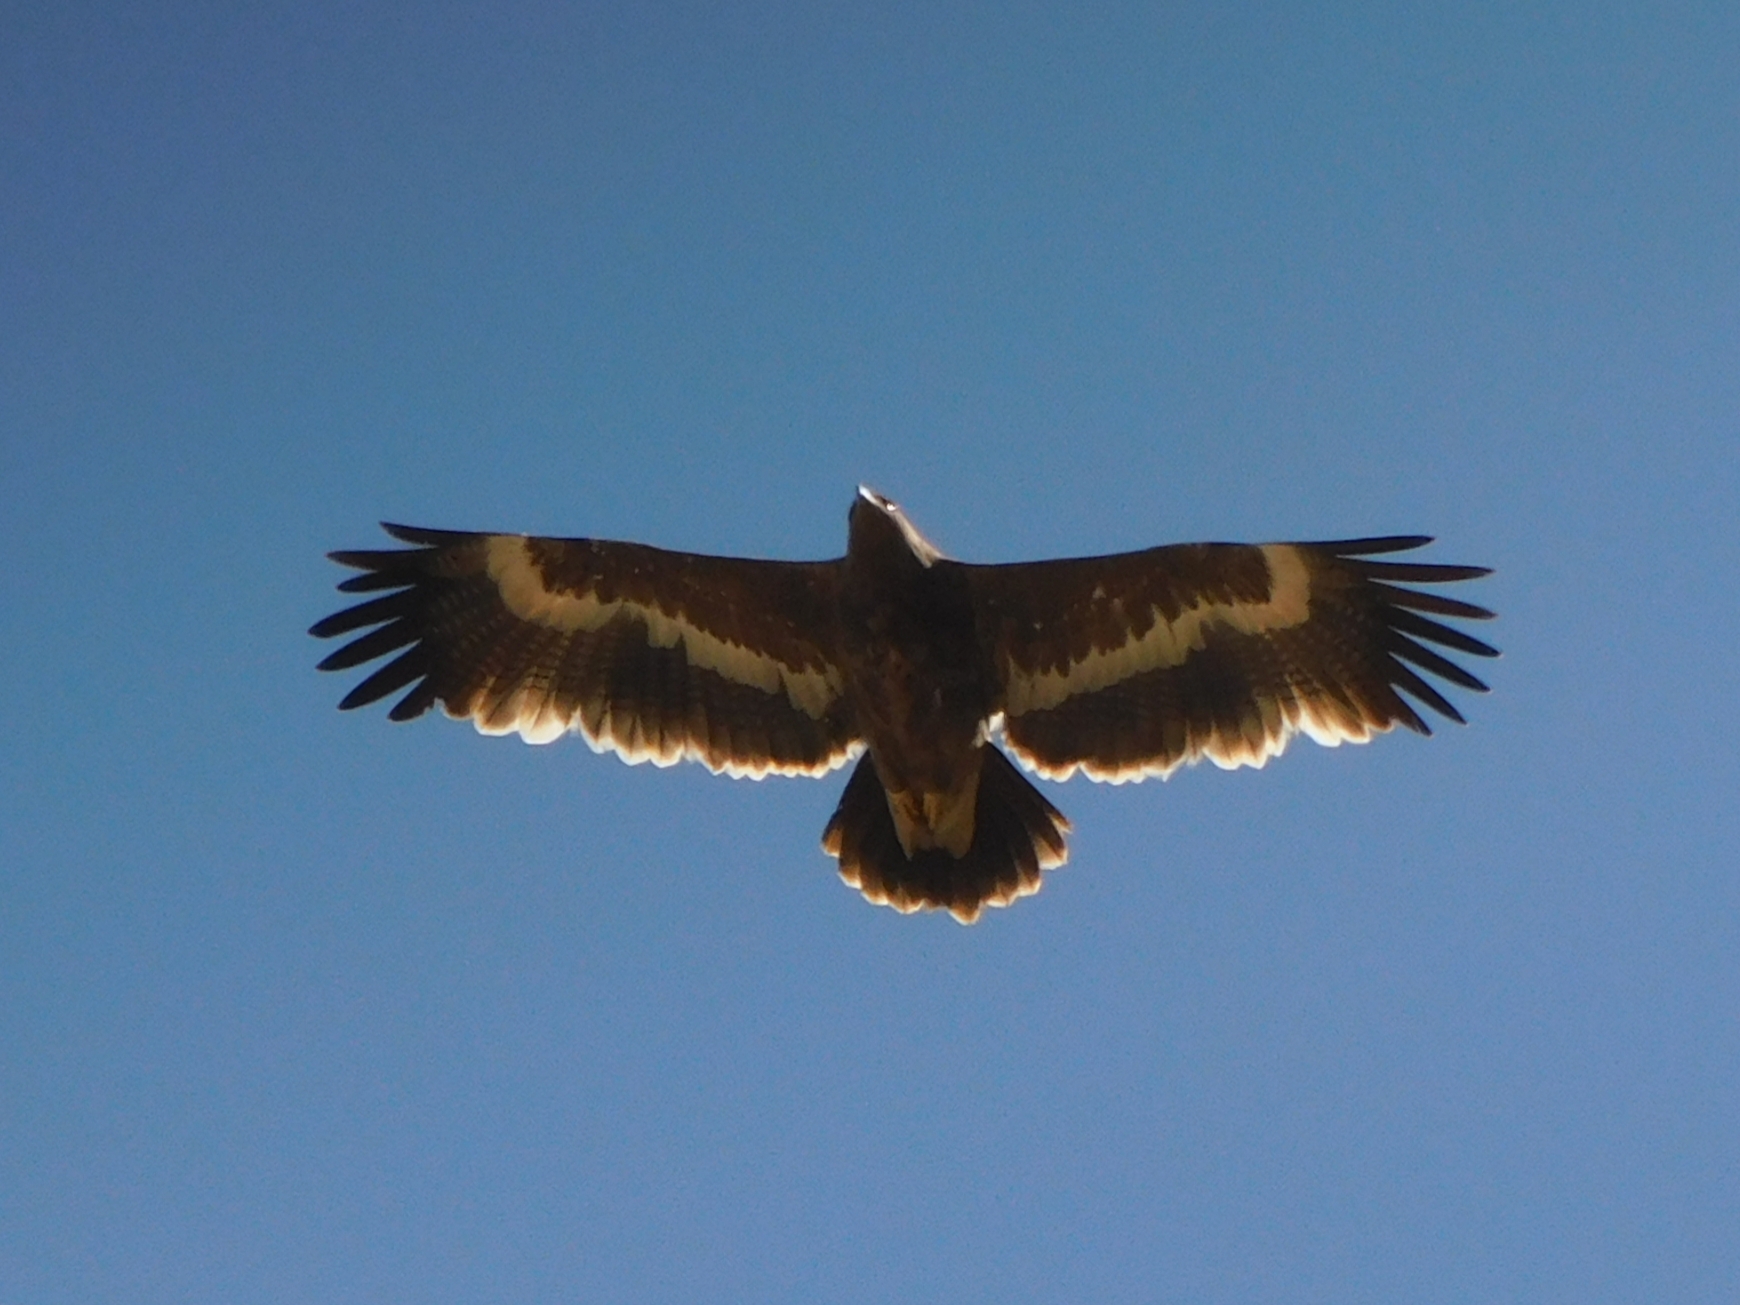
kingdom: Animalia
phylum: Chordata
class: Aves
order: Accipitriformes
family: Accipitridae
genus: Aquila
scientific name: Aquila nipalensis
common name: Steppe eagle
